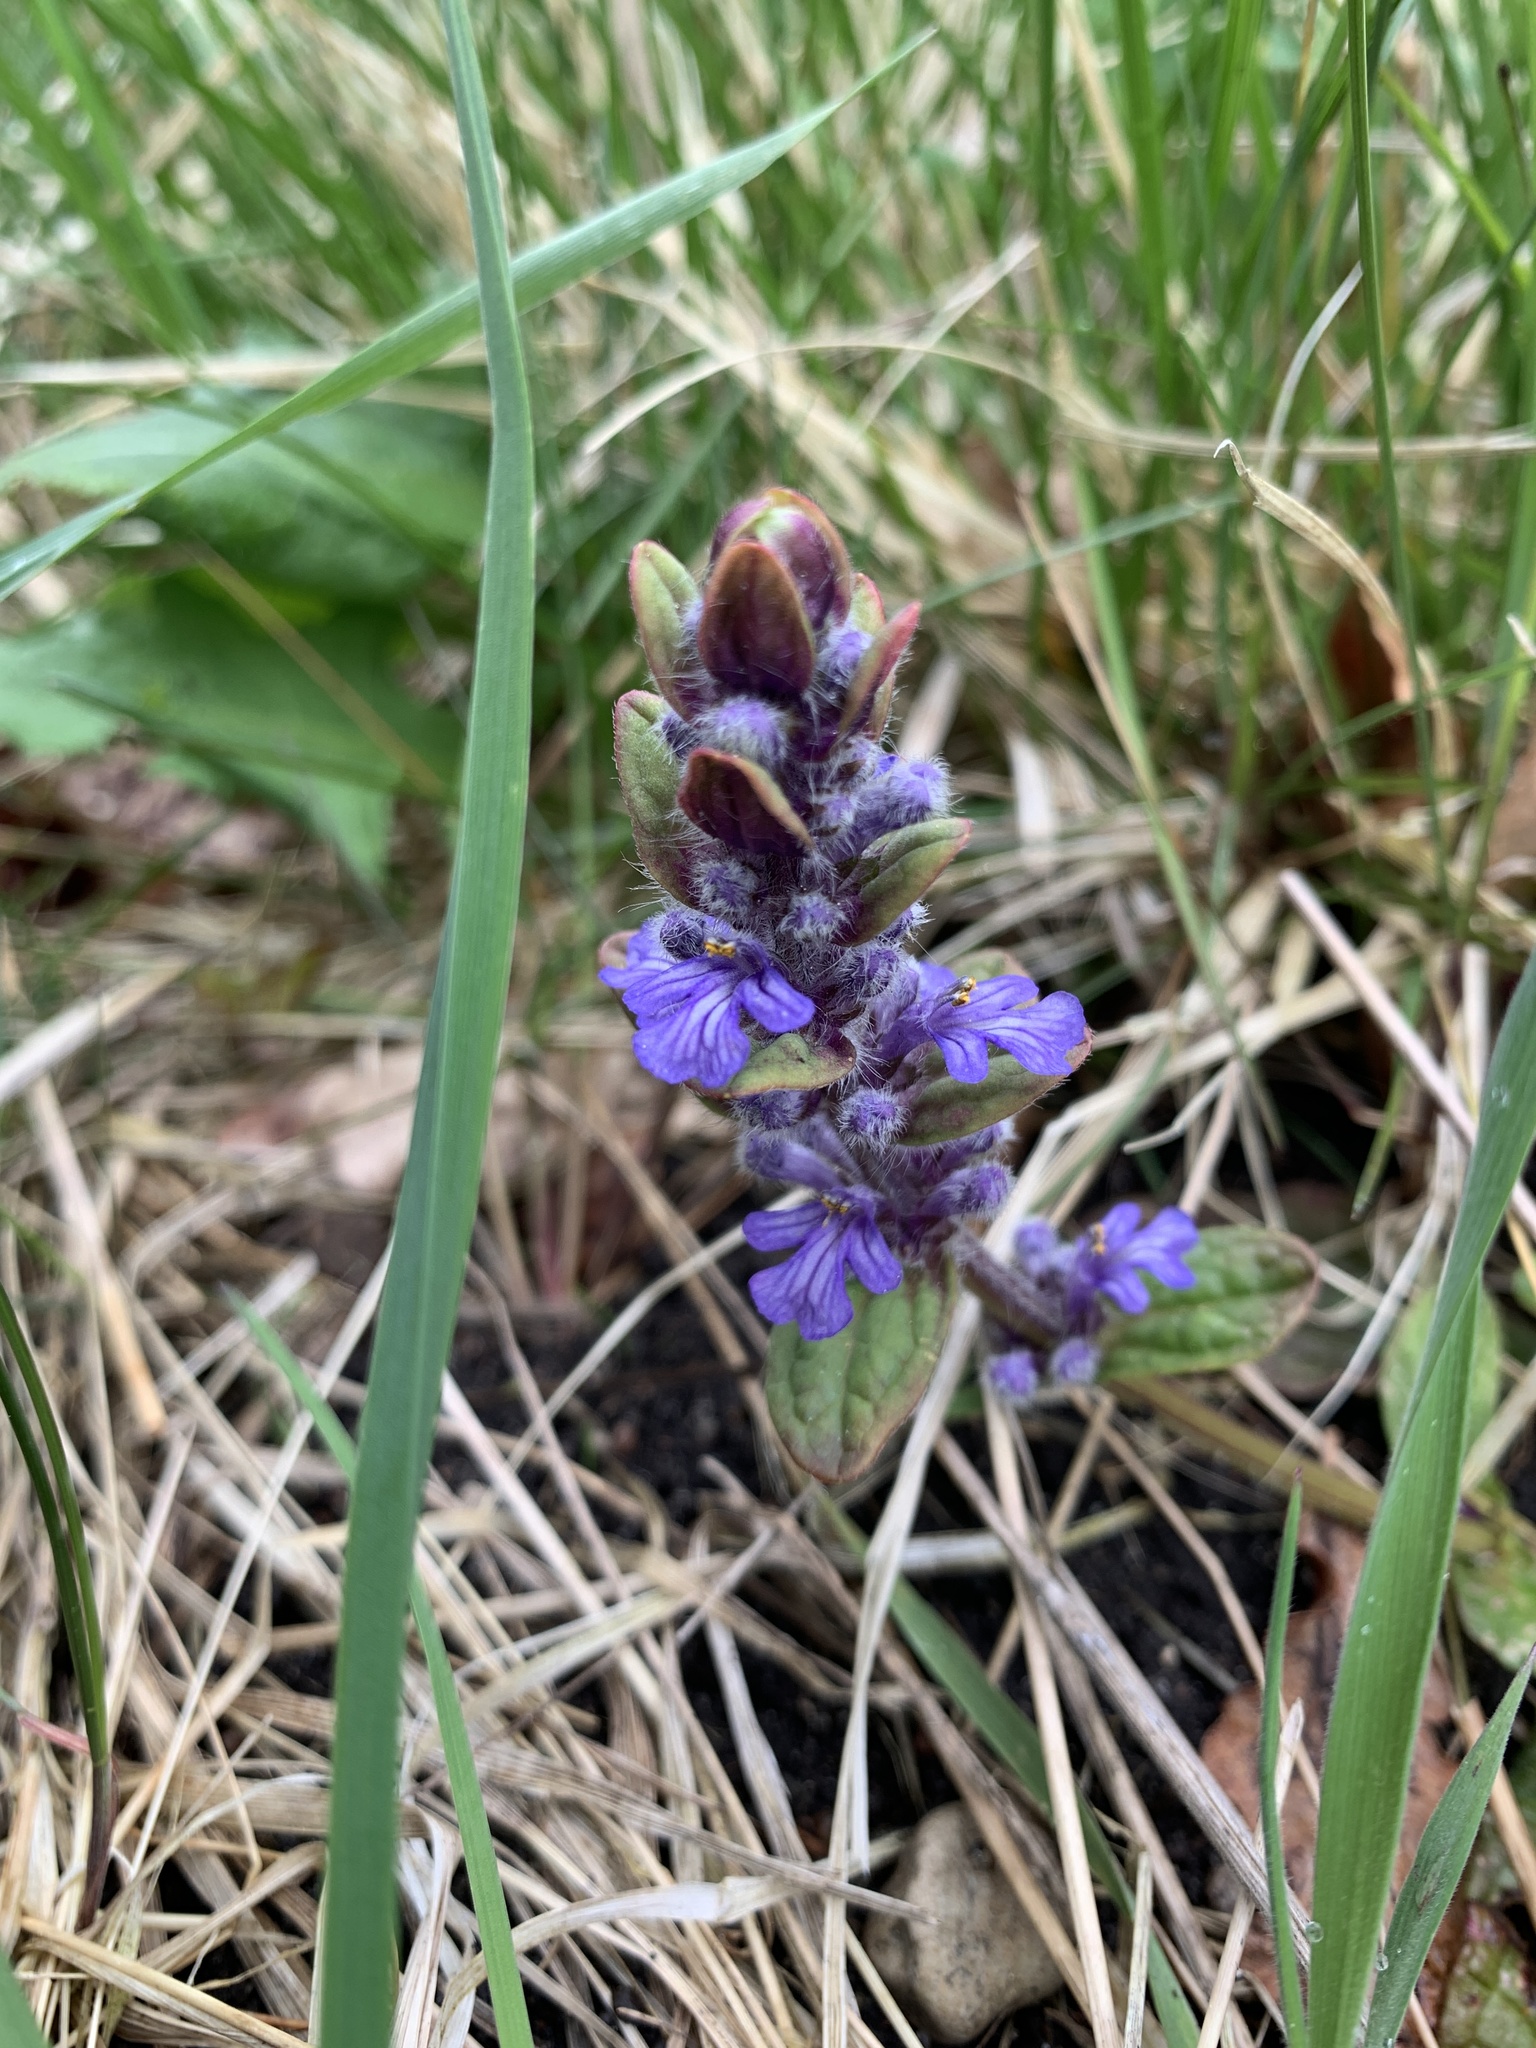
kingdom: Plantae
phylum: Tracheophyta
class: Magnoliopsida
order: Lamiales
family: Lamiaceae
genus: Ajuga
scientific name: Ajuga reptans
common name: Bugle
